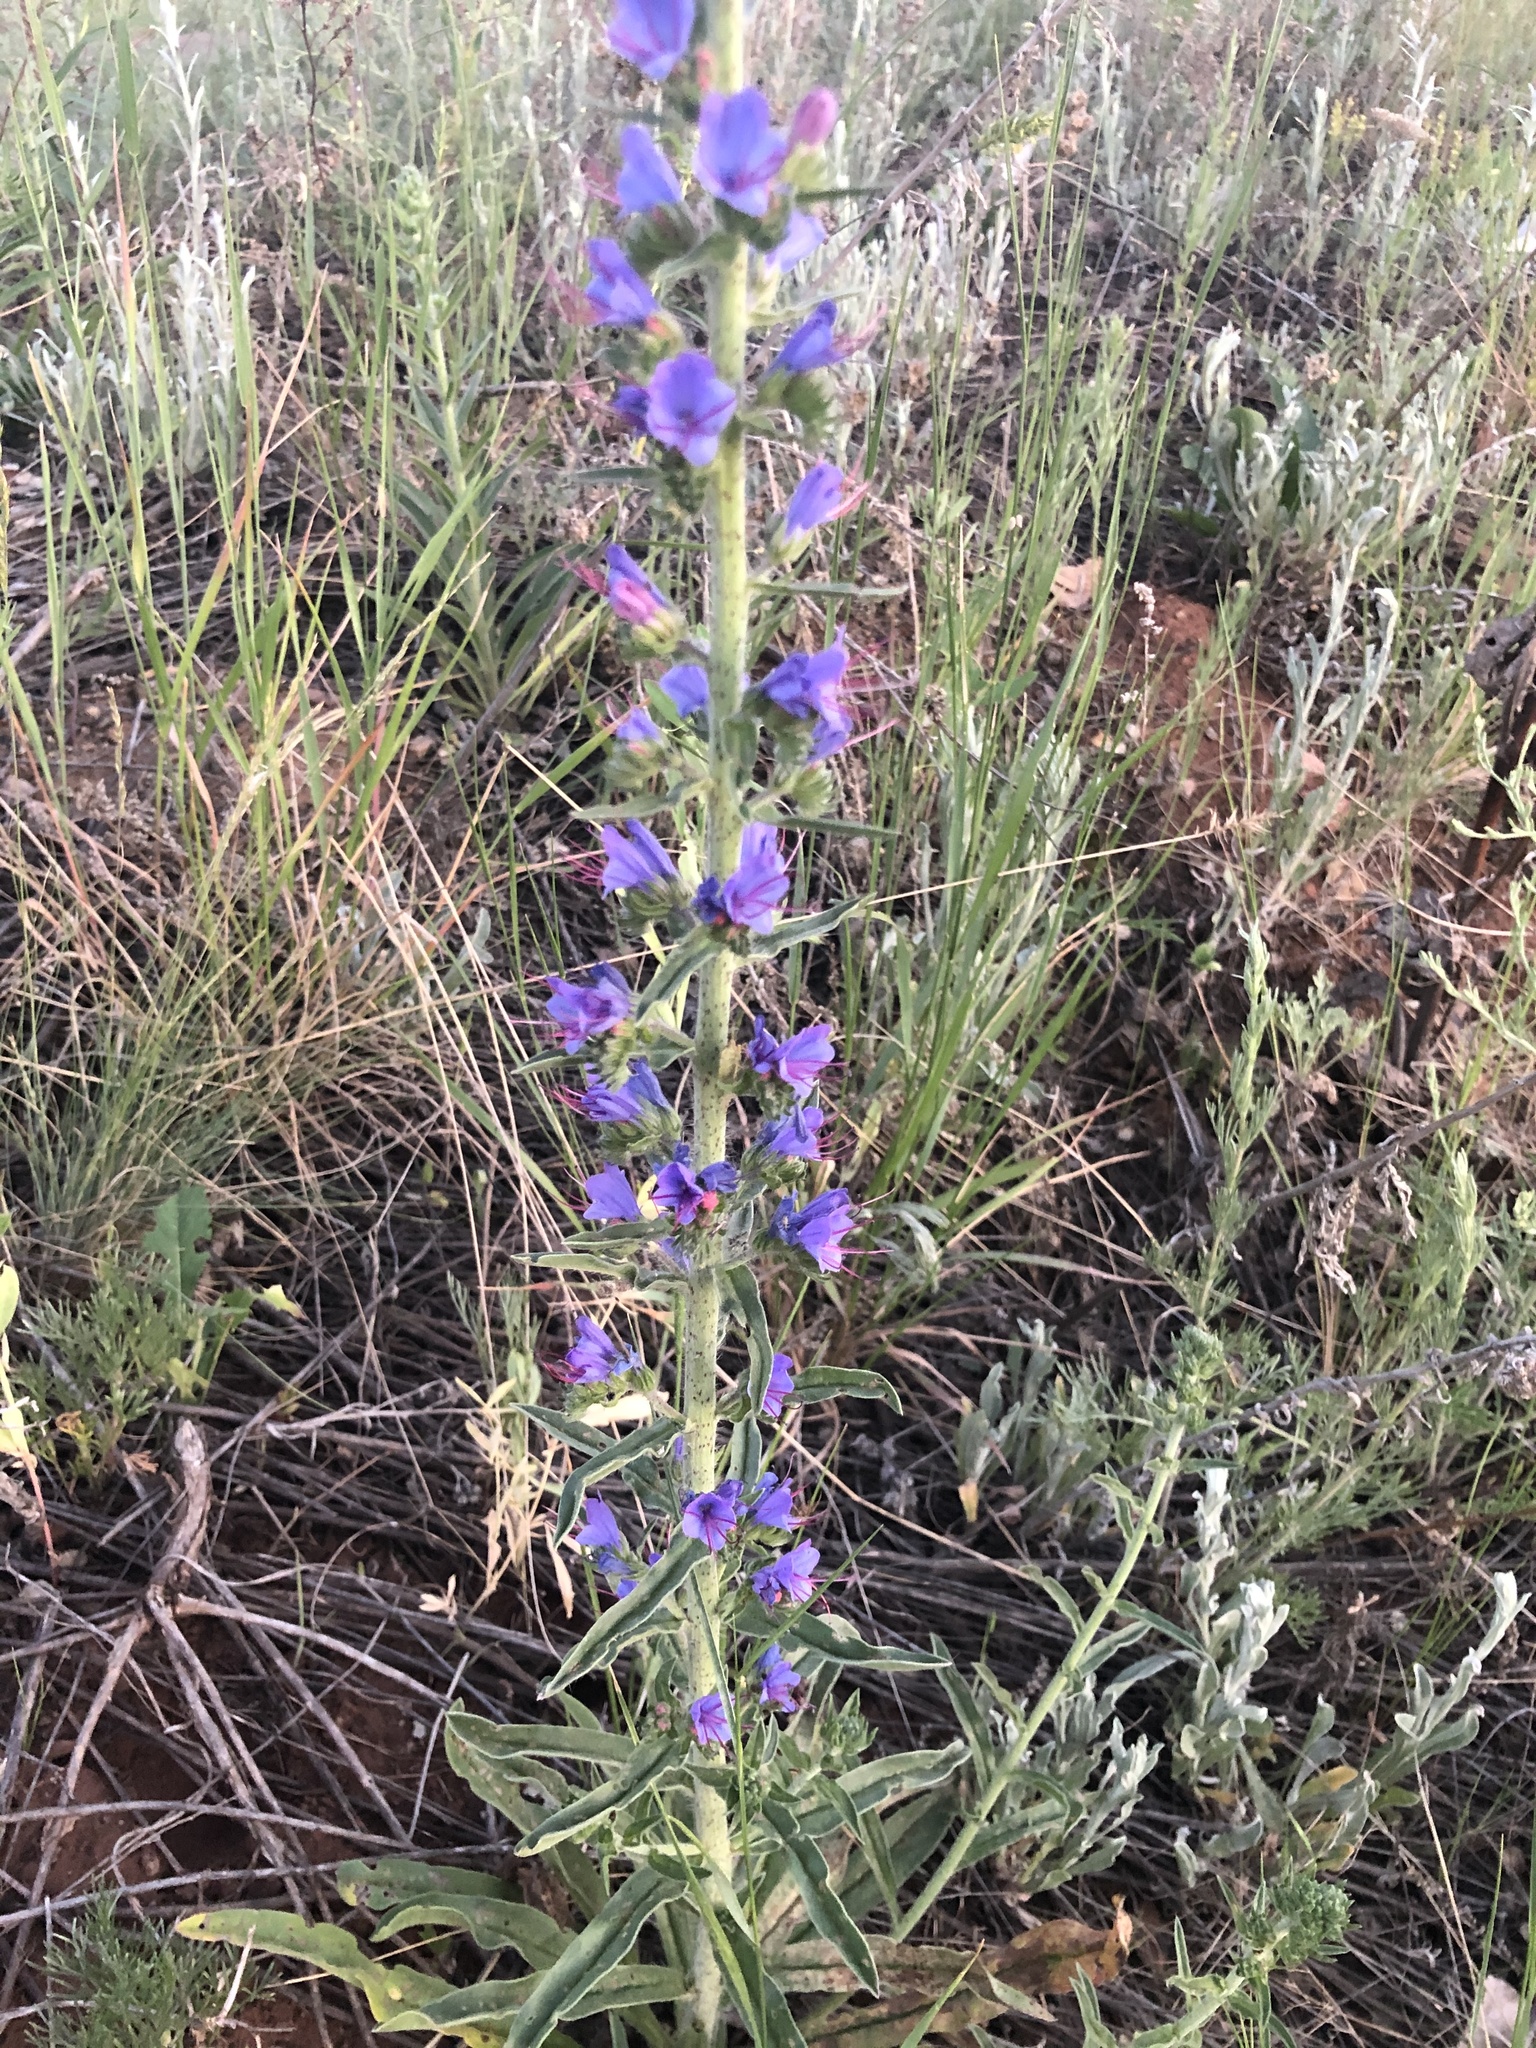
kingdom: Plantae
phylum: Tracheophyta
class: Magnoliopsida
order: Boraginales
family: Boraginaceae
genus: Echium
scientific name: Echium vulgare
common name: Common viper's bugloss
